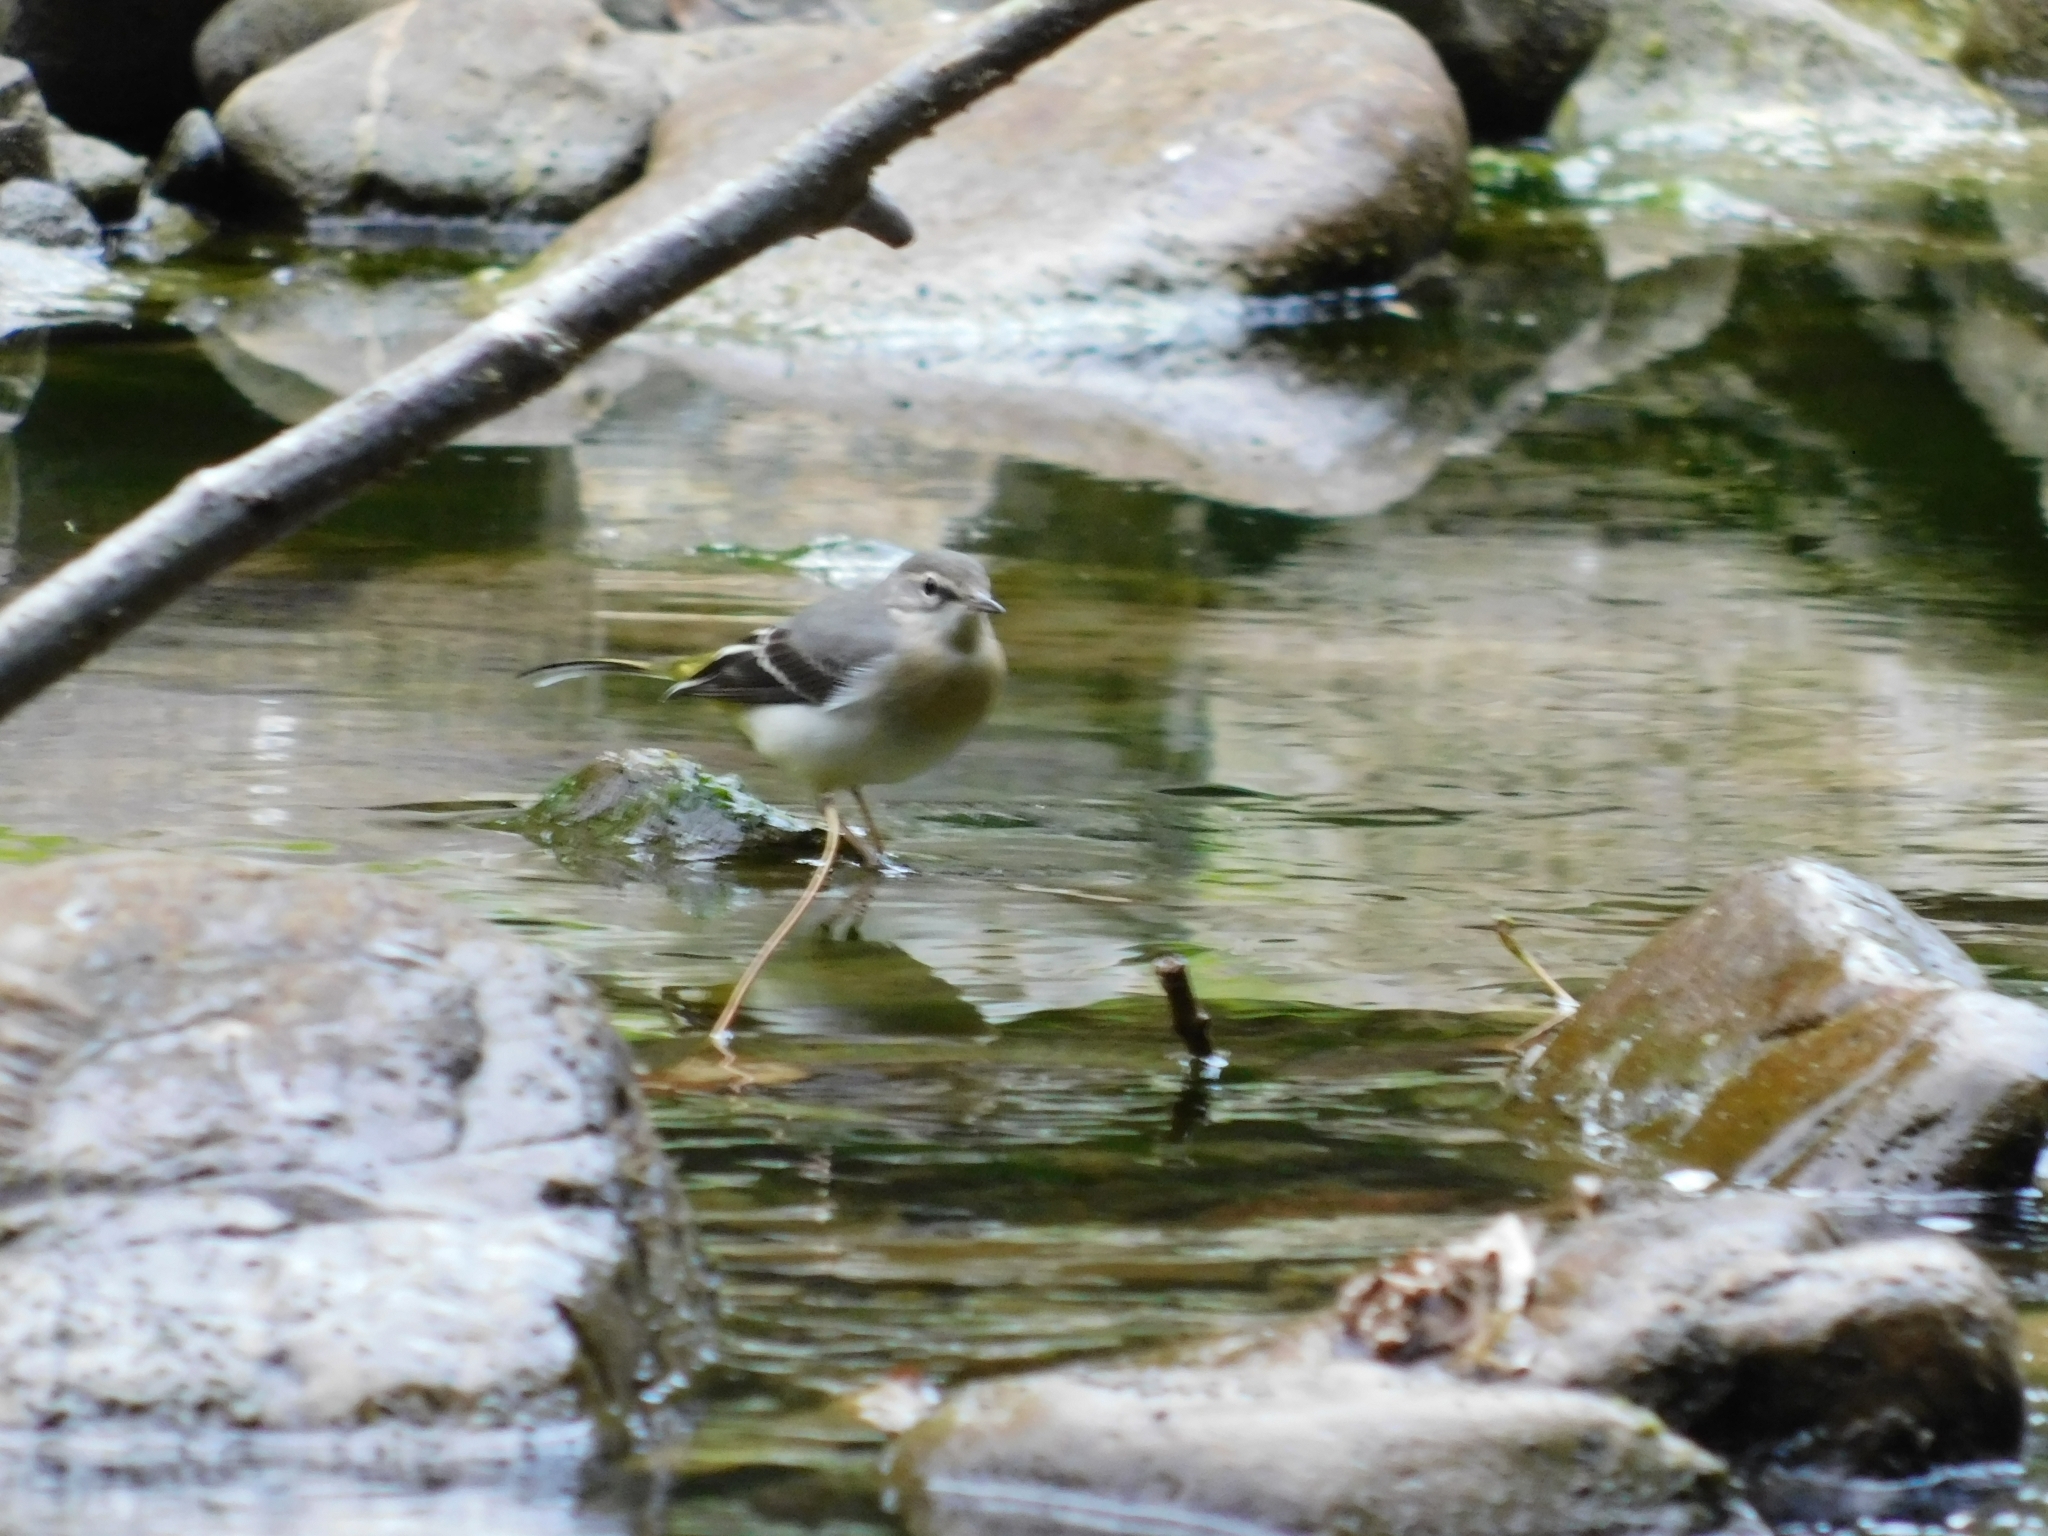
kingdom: Animalia
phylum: Chordata
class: Aves
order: Passeriformes
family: Motacillidae
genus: Motacilla
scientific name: Motacilla cinerea
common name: Grey wagtail
